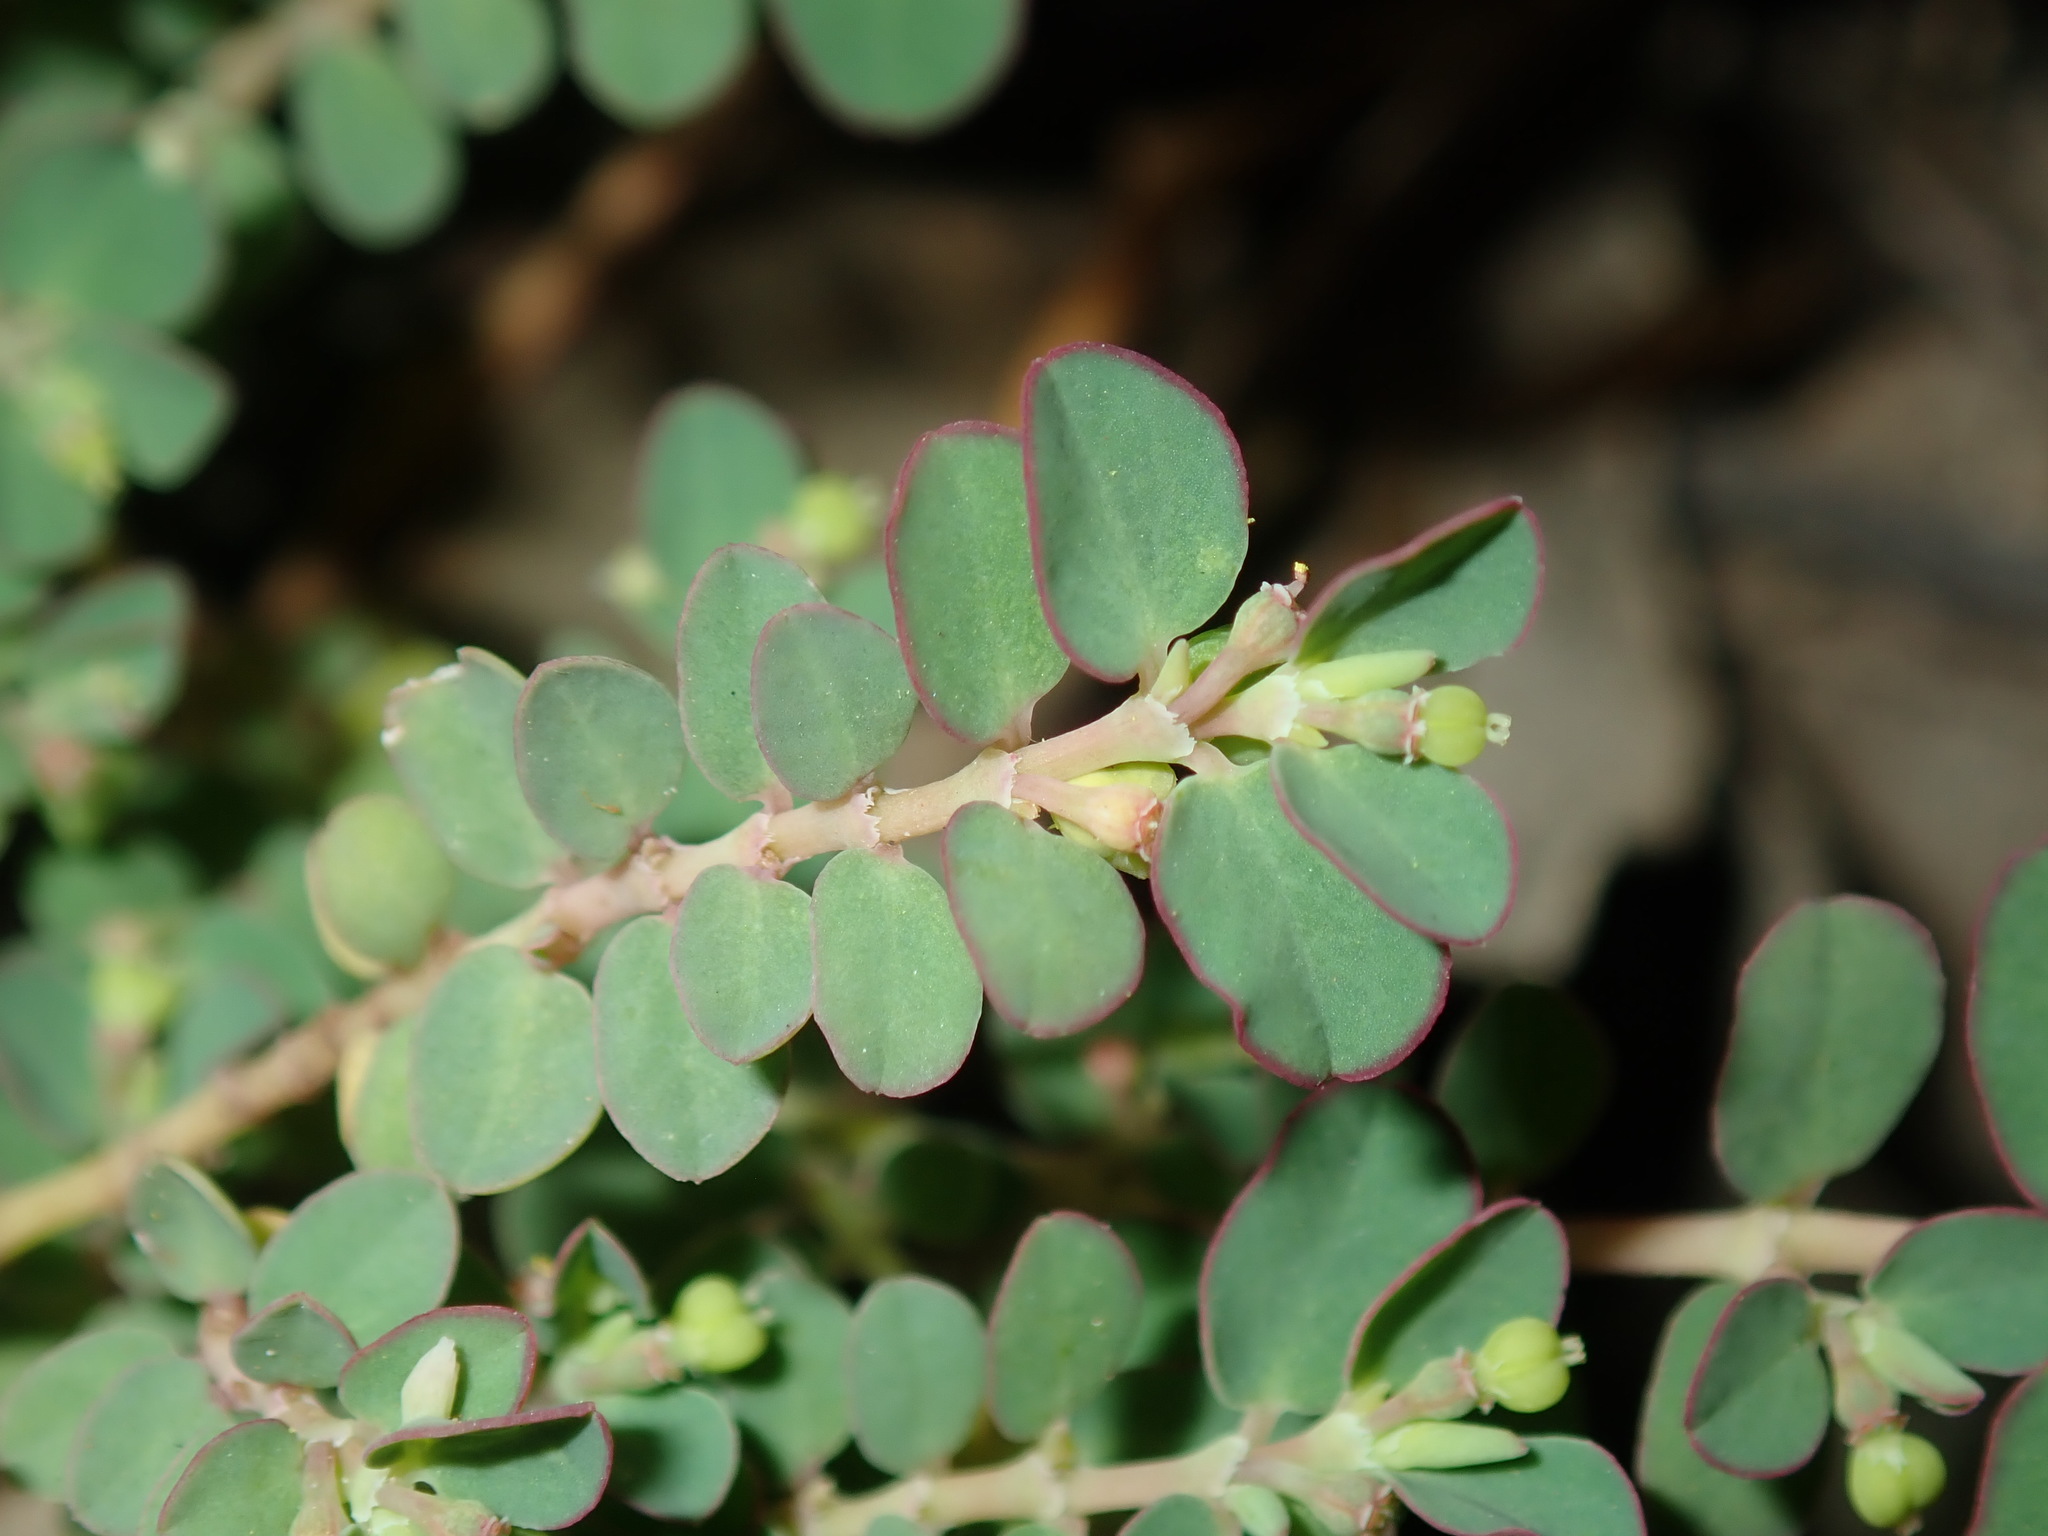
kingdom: Plantae
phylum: Tracheophyta
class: Magnoliopsida
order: Malpighiales
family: Euphorbiaceae
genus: Euphorbia
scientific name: Euphorbia serpens
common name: Matted sandmat
